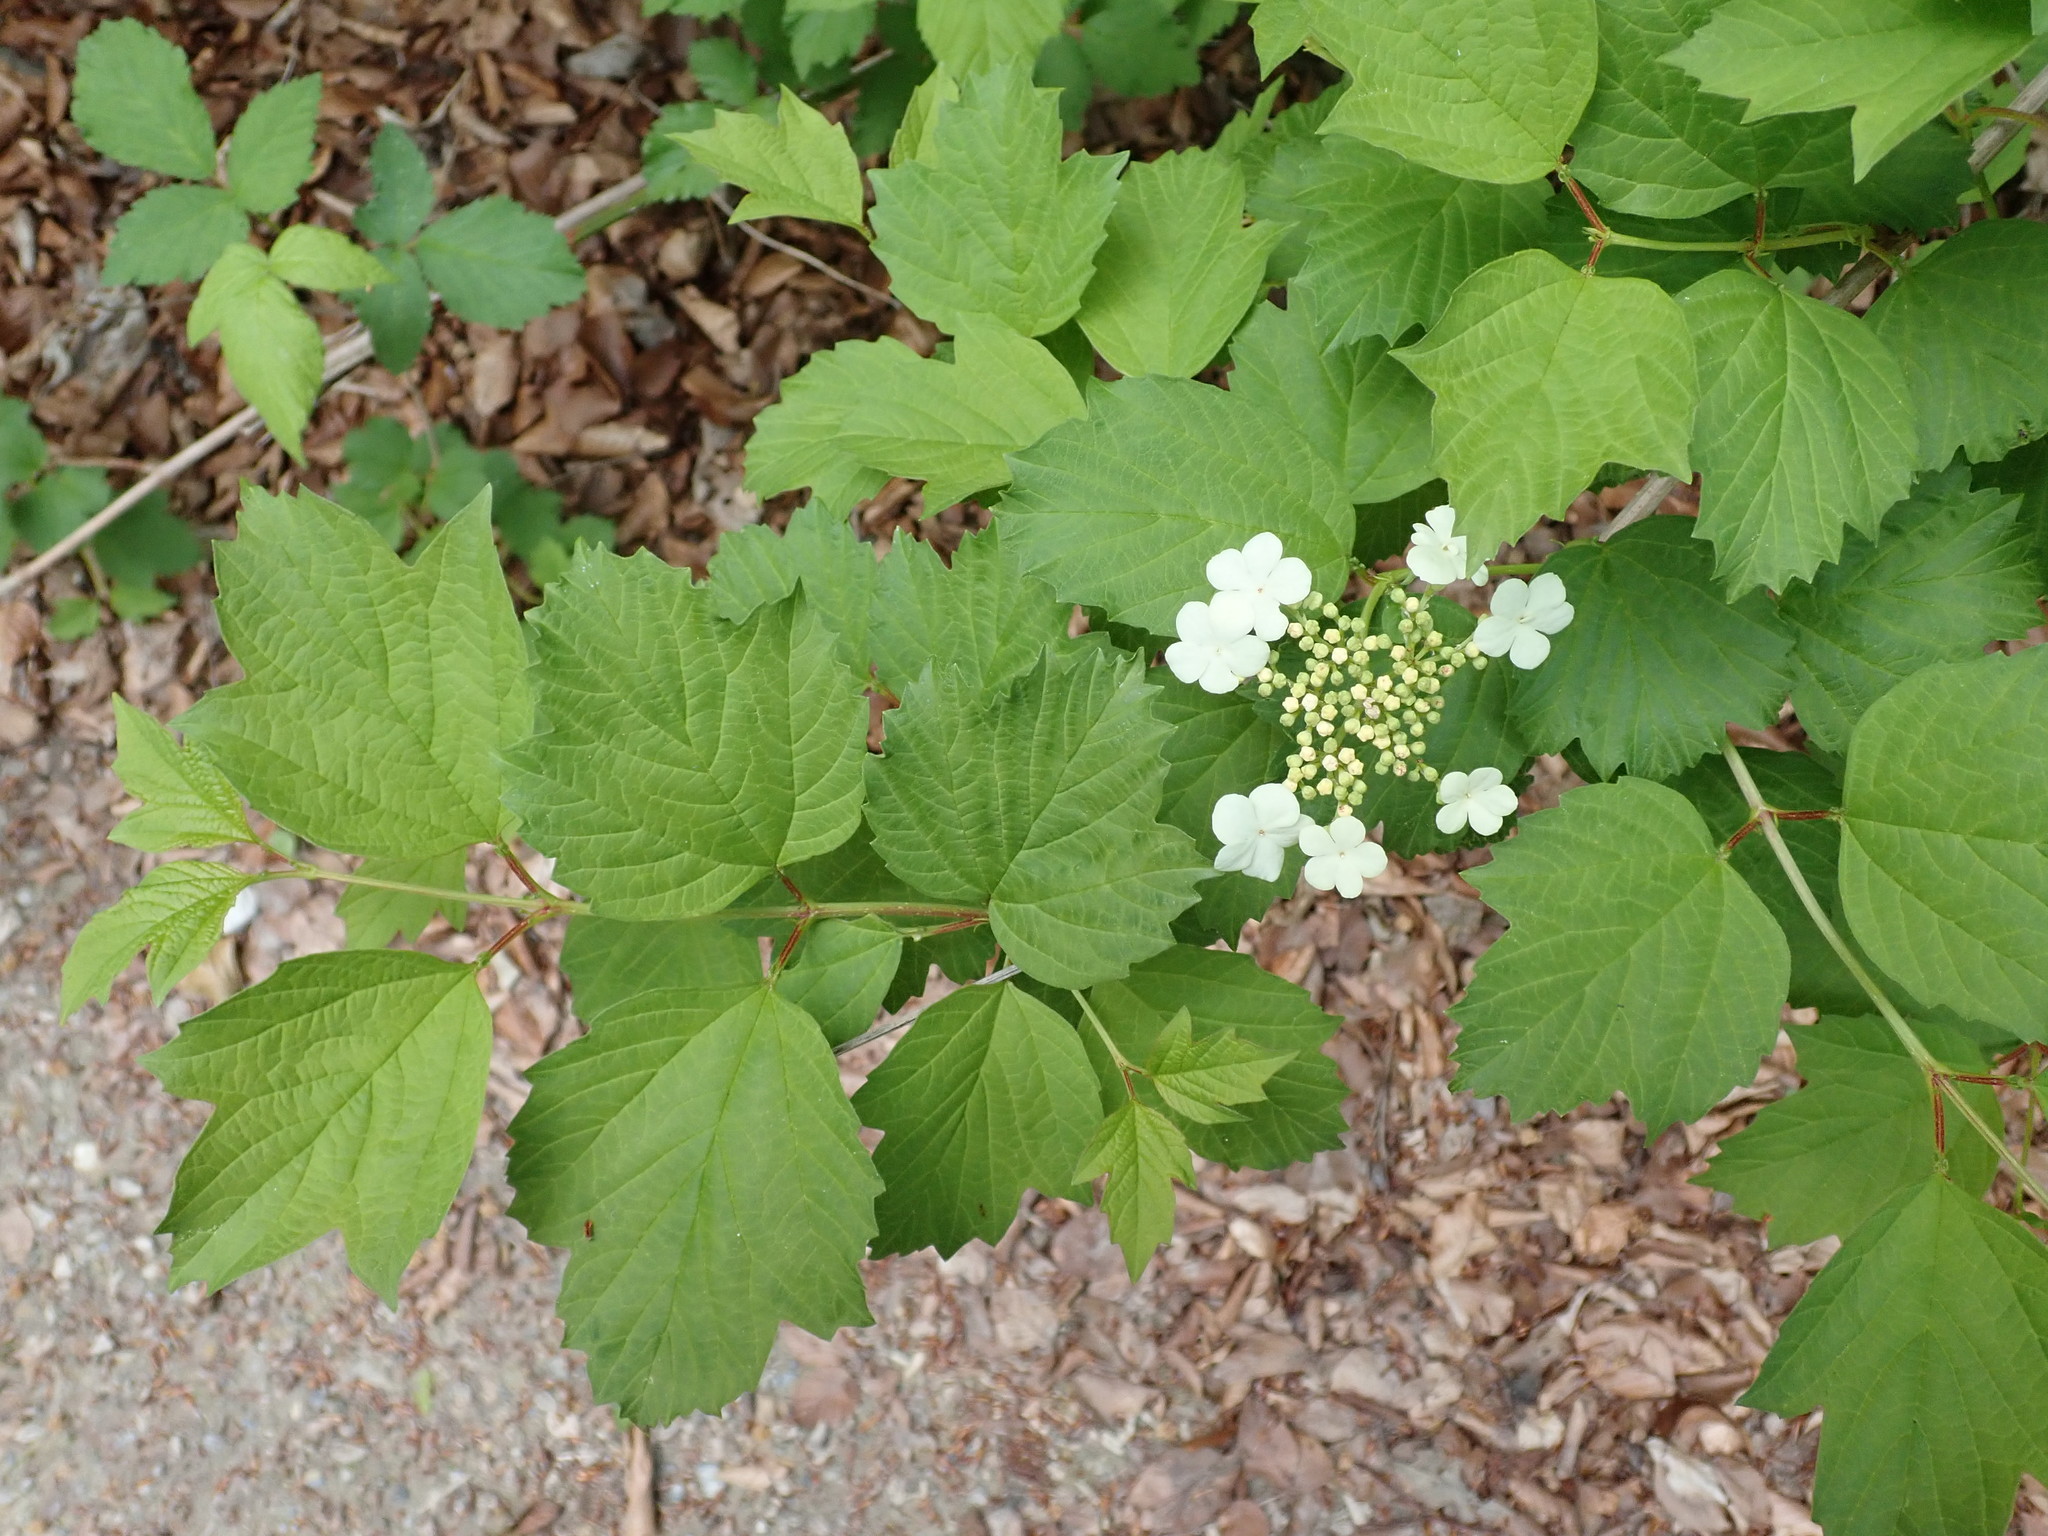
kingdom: Plantae
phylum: Tracheophyta
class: Magnoliopsida
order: Dipsacales
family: Viburnaceae
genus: Viburnum
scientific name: Viburnum opulus
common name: Guelder-rose
